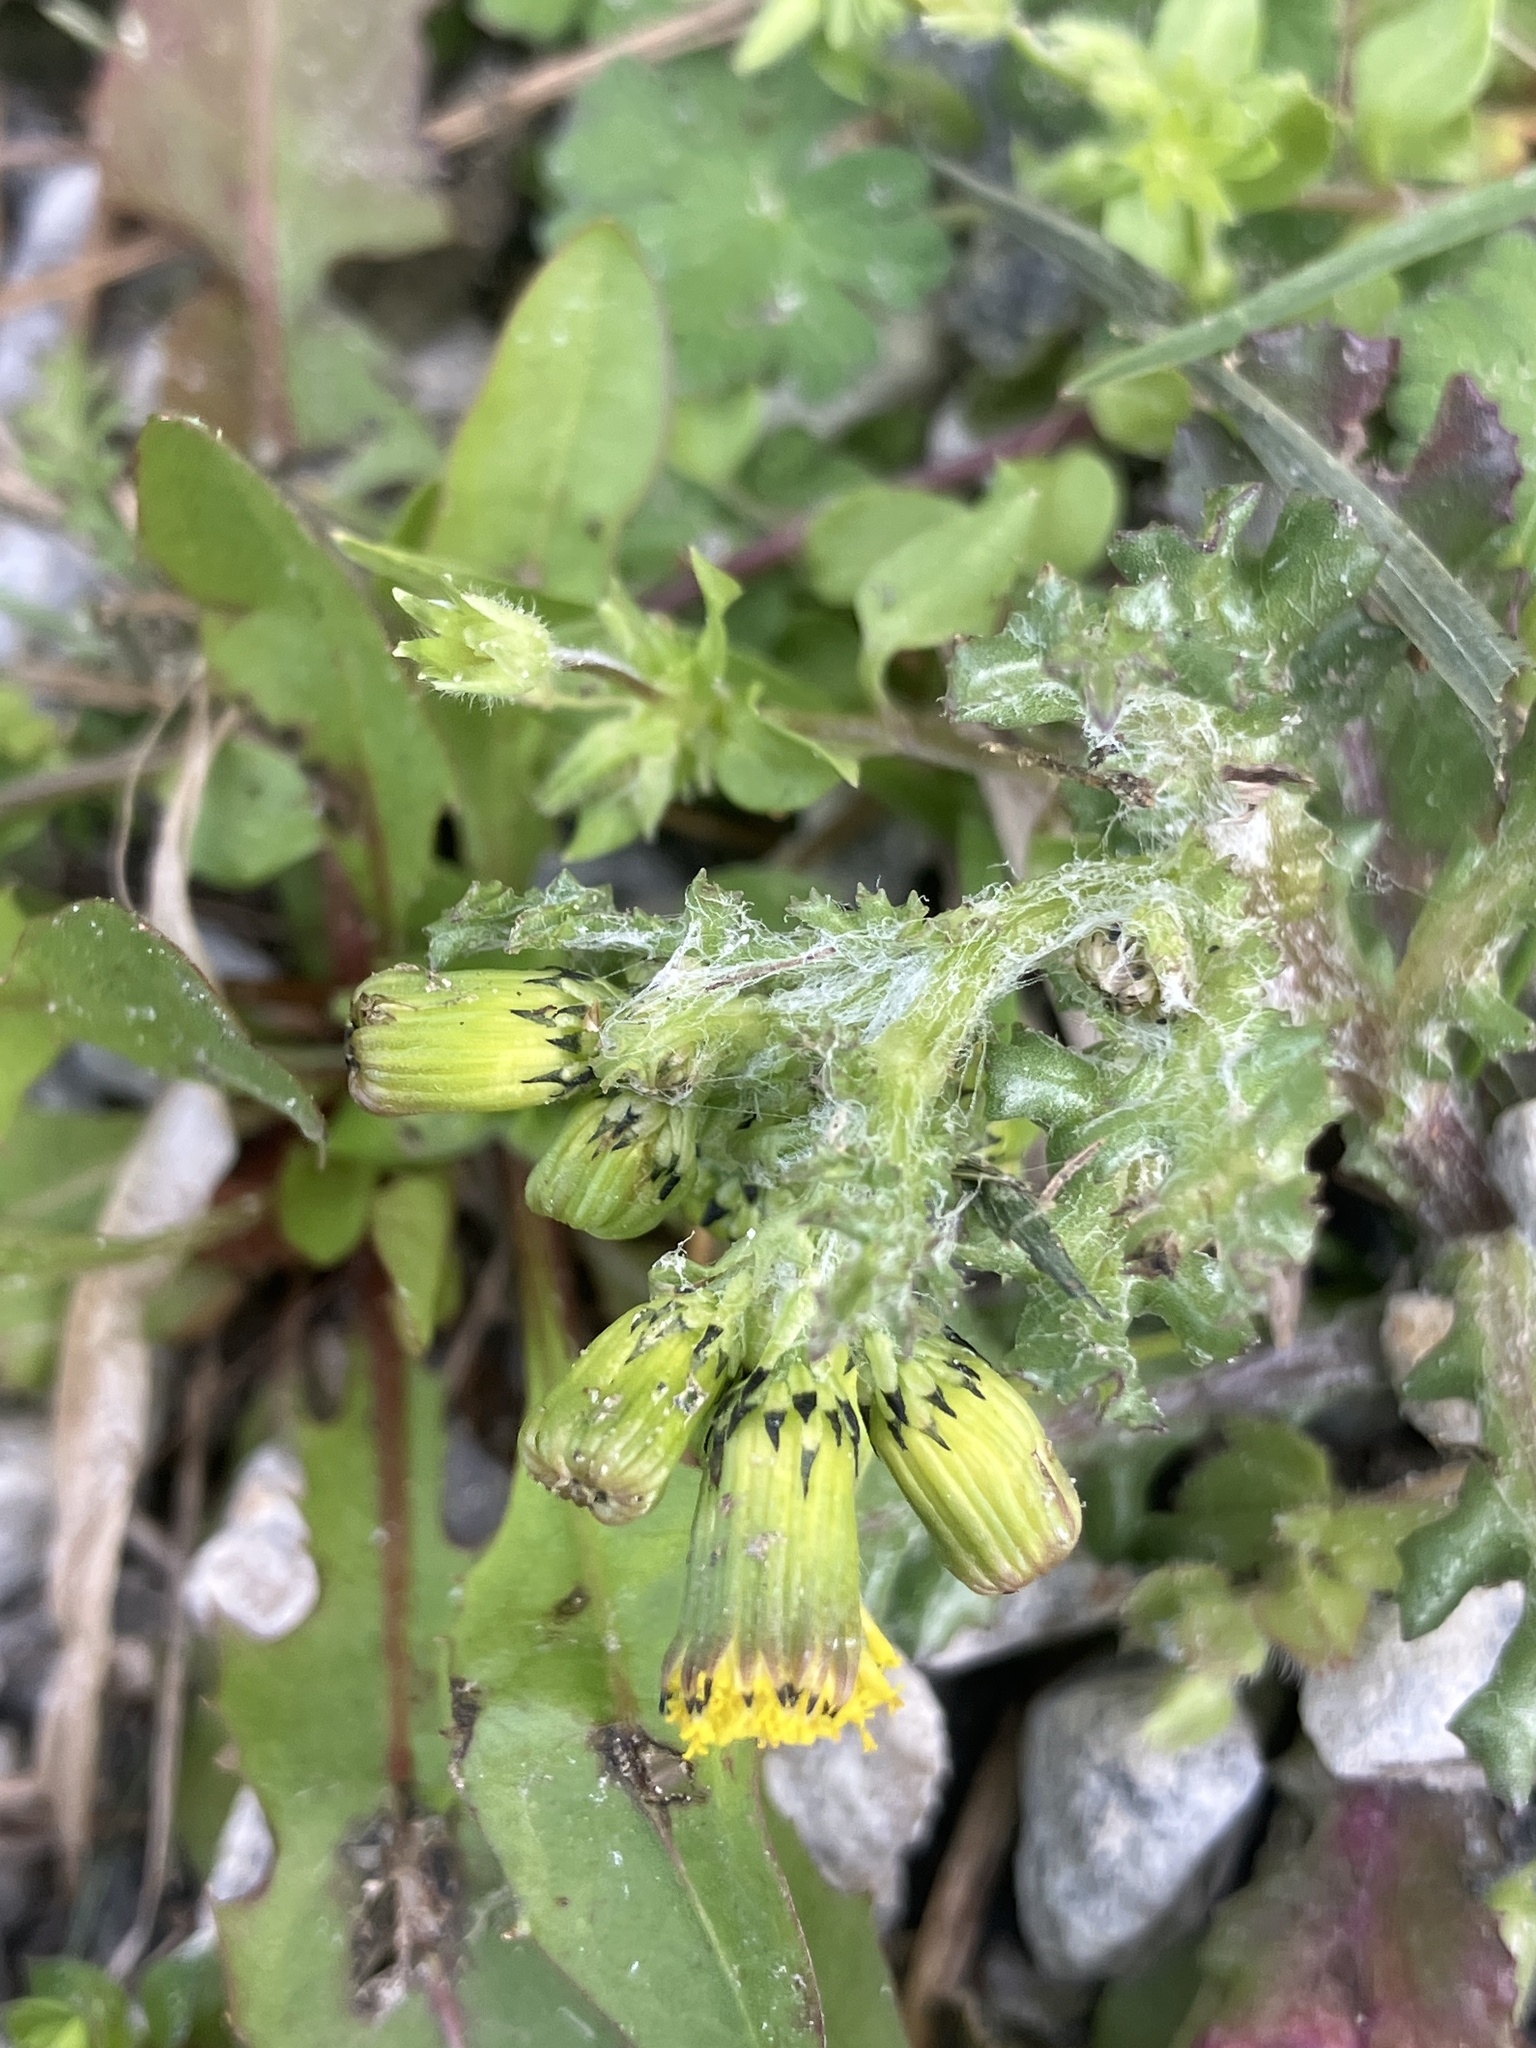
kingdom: Plantae
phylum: Tracheophyta
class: Magnoliopsida
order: Asterales
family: Asteraceae
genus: Senecio
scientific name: Senecio vulgaris
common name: Old-man-in-the-spring
